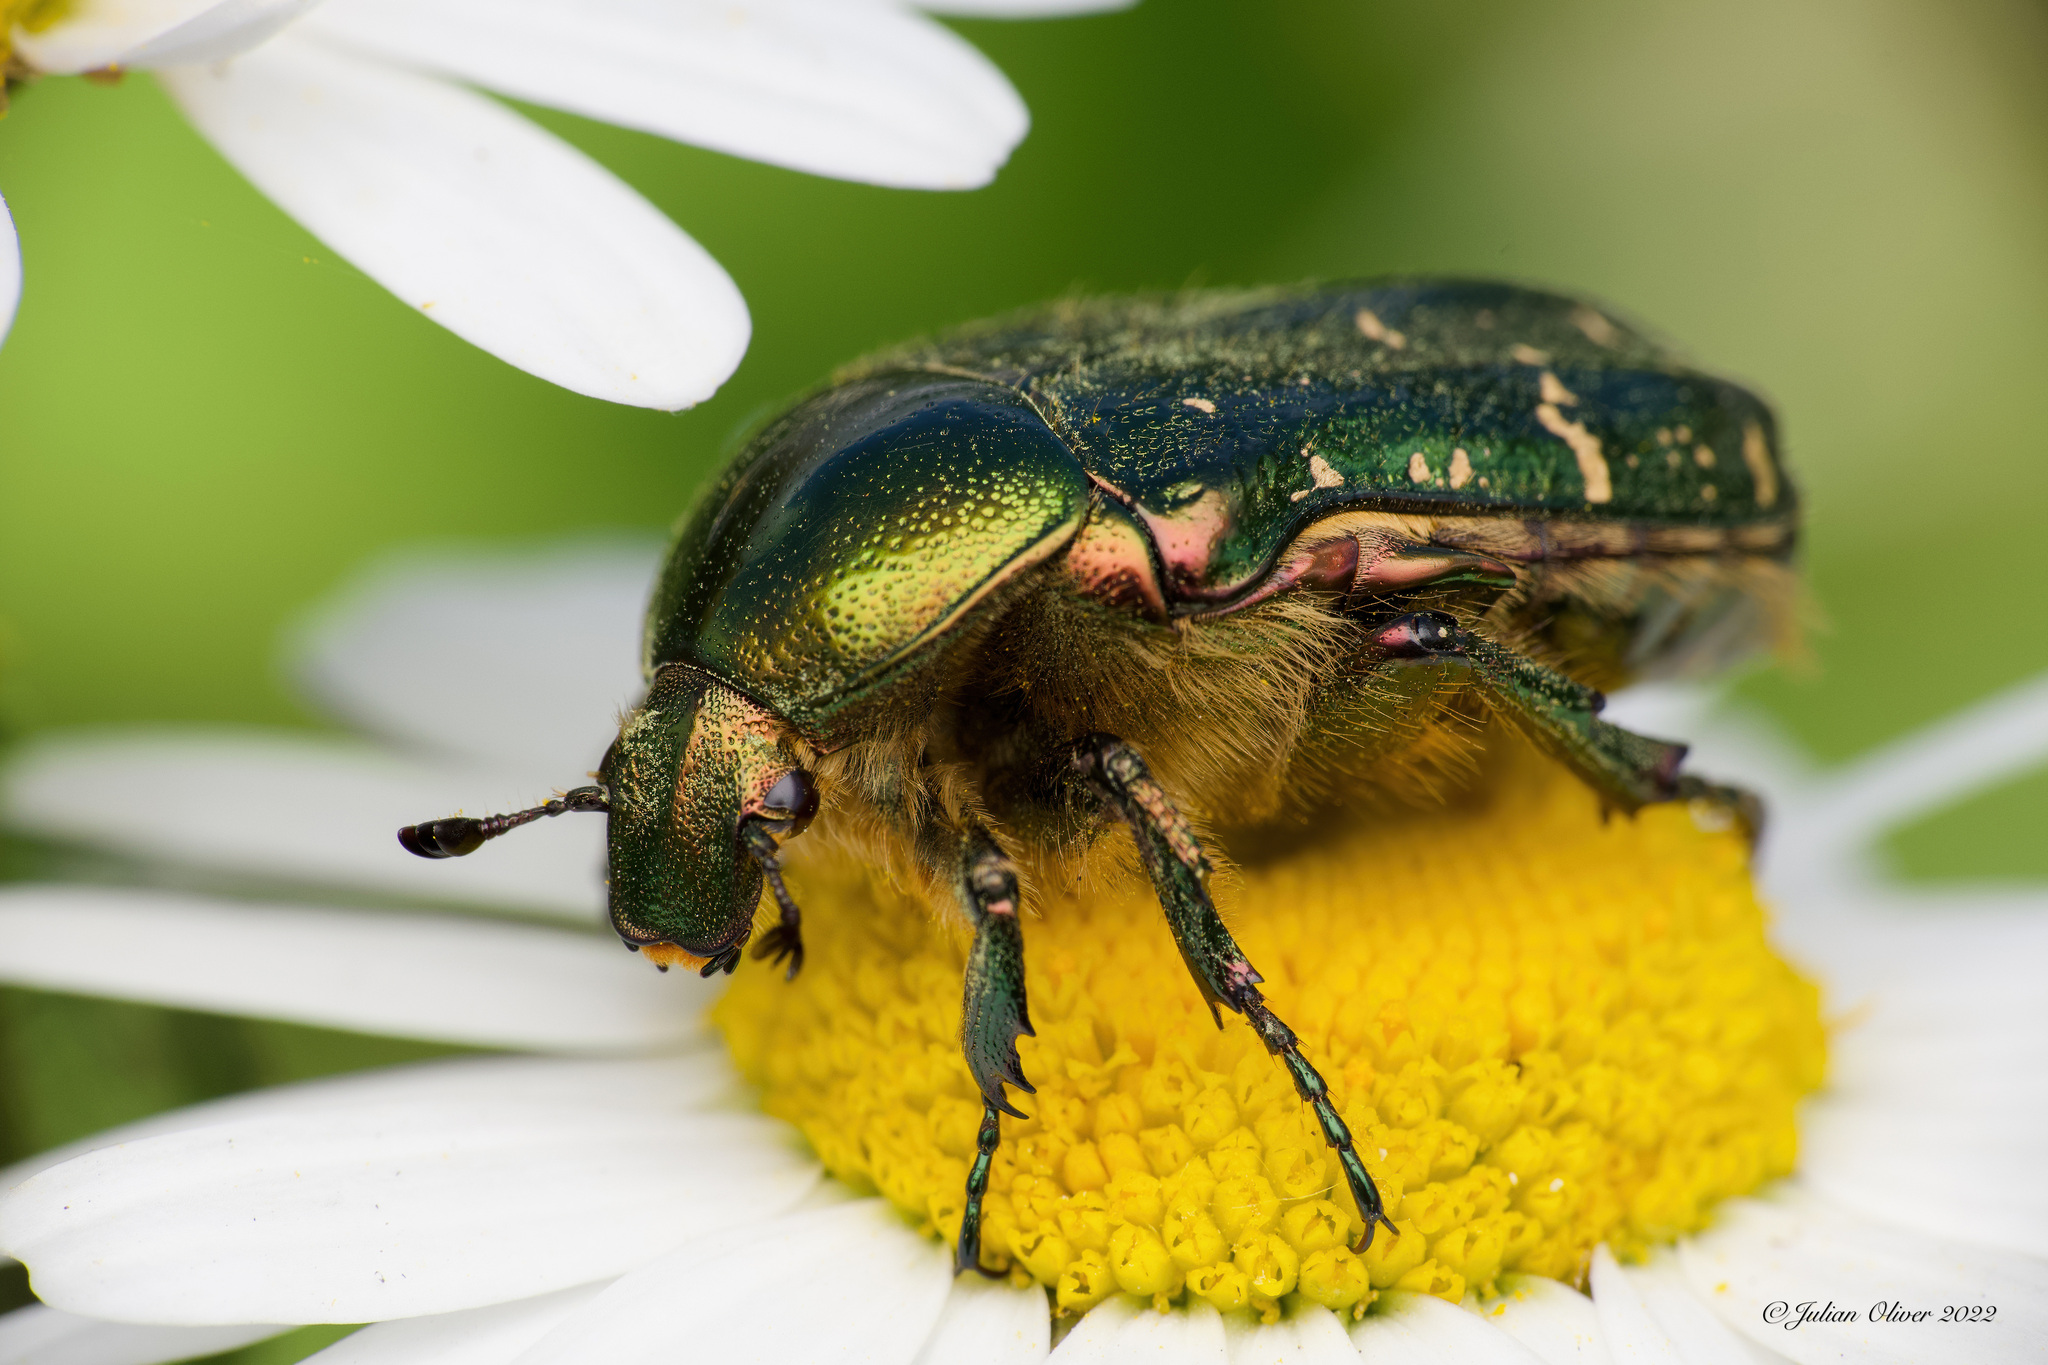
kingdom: Animalia
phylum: Arthropoda
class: Insecta
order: Coleoptera
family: Scarabaeidae
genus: Cetonia
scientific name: Cetonia aurata
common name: Rose chafer
